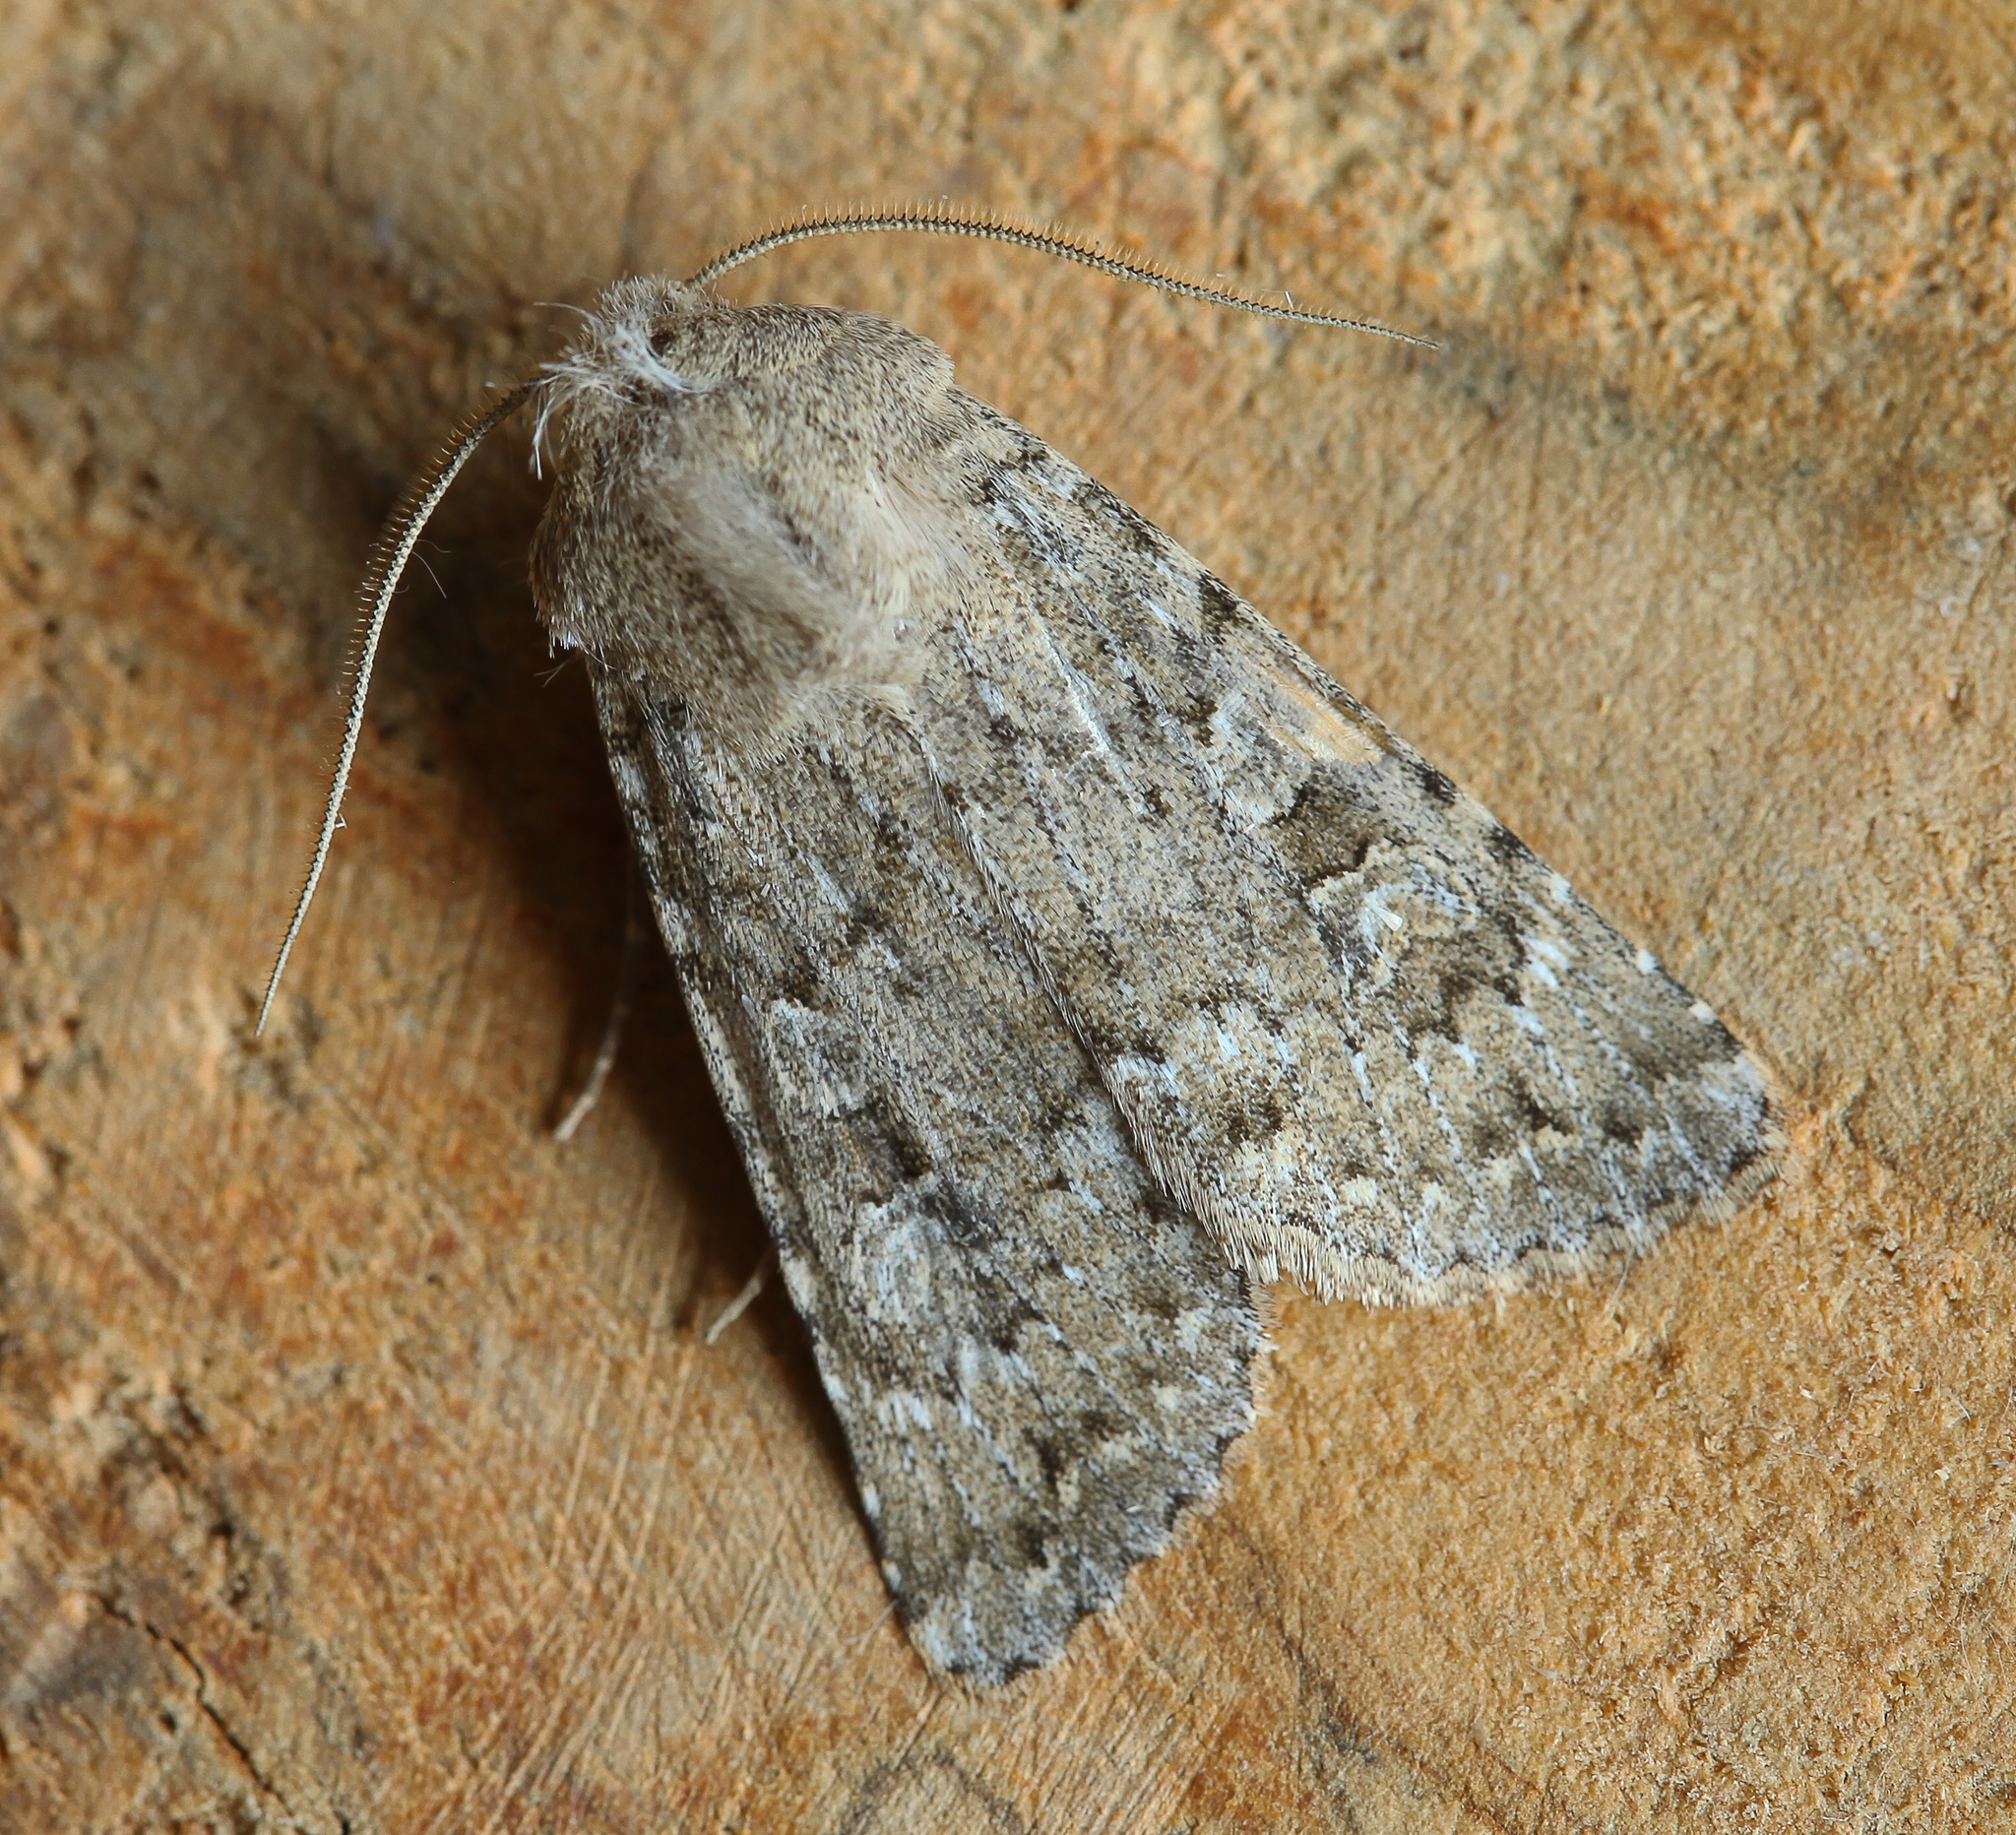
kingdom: Animalia
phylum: Arthropoda
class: Insecta
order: Lepidoptera
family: Noctuidae
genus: Pseudohadena
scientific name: Pseudohadena argyllostigma
